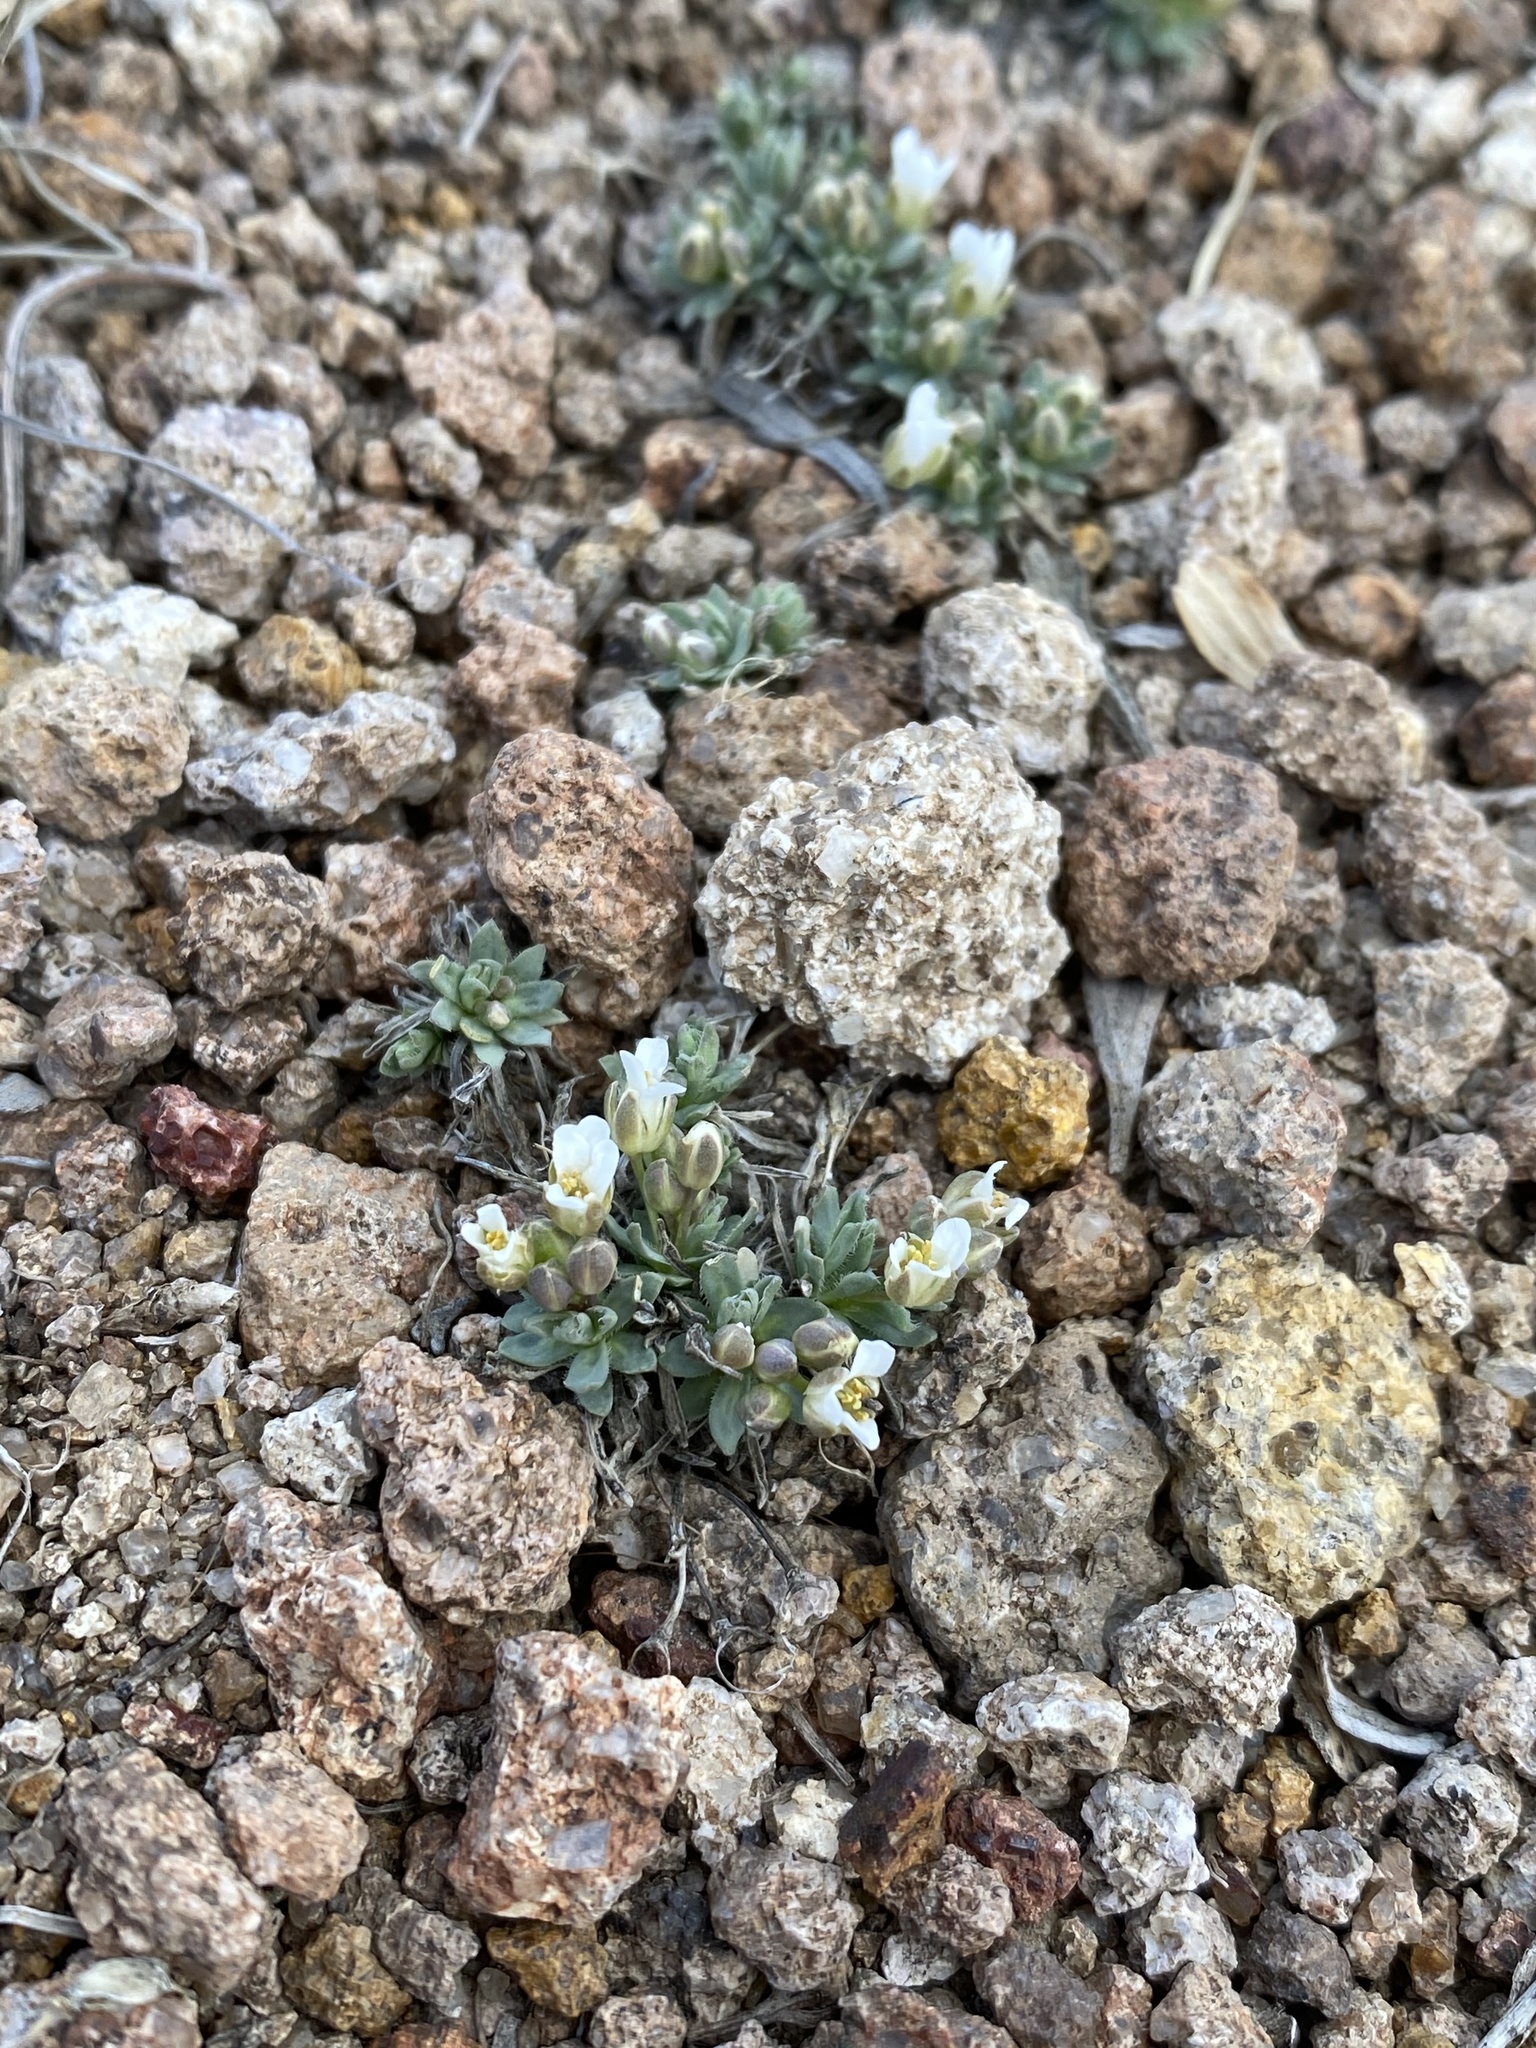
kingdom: Plantae
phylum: Tracheophyta
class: Magnoliopsida
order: Brassicales
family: Brassicaceae
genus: Cusickiella
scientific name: Cusickiella douglasii
